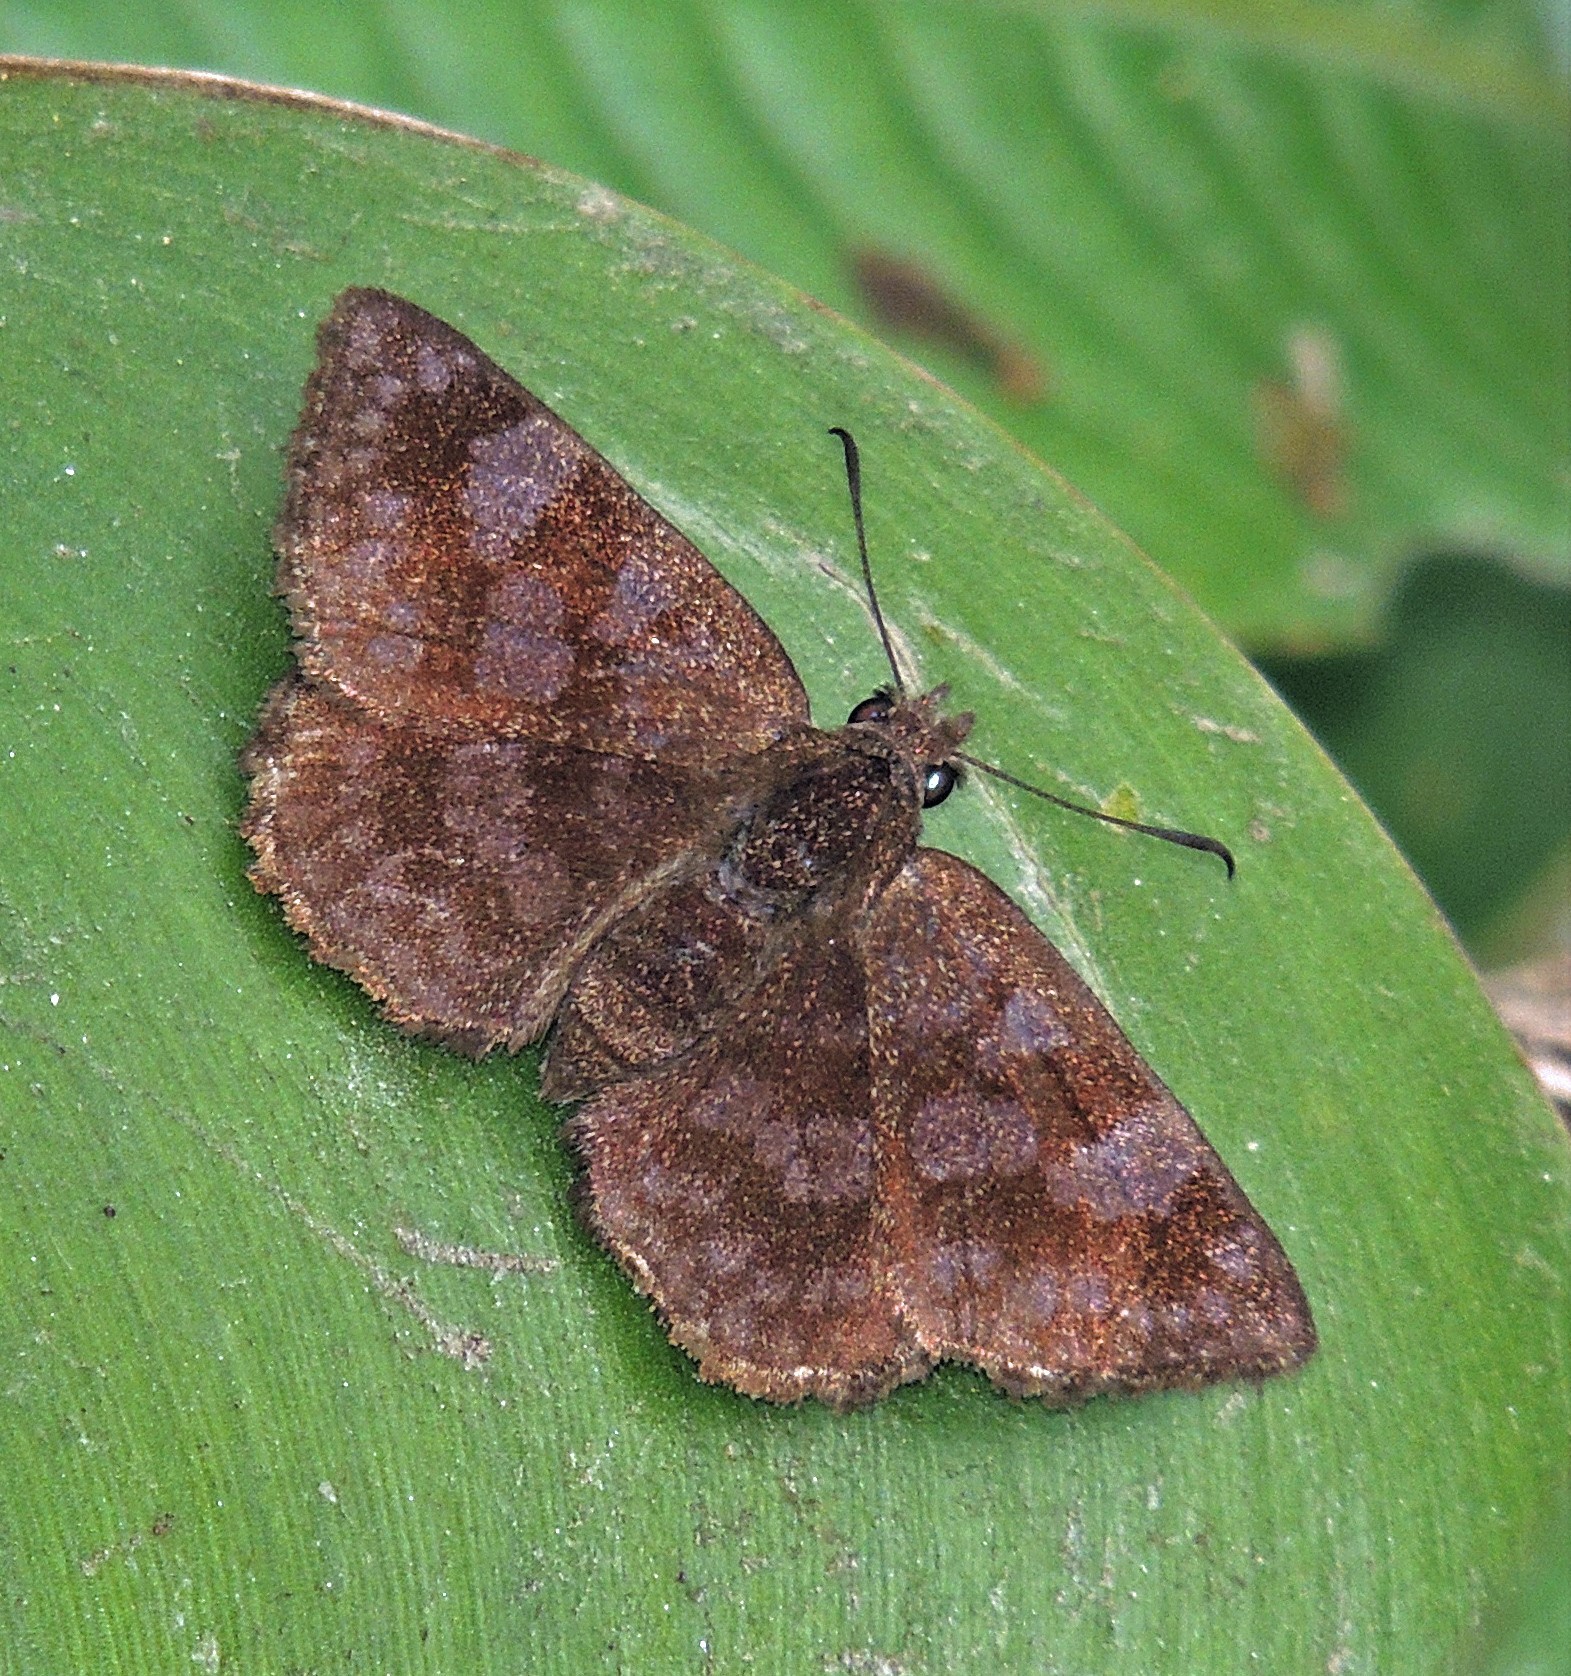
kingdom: Animalia
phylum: Arthropoda
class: Insecta
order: Lepidoptera
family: Hesperiidae
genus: Viola
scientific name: Viola minor
